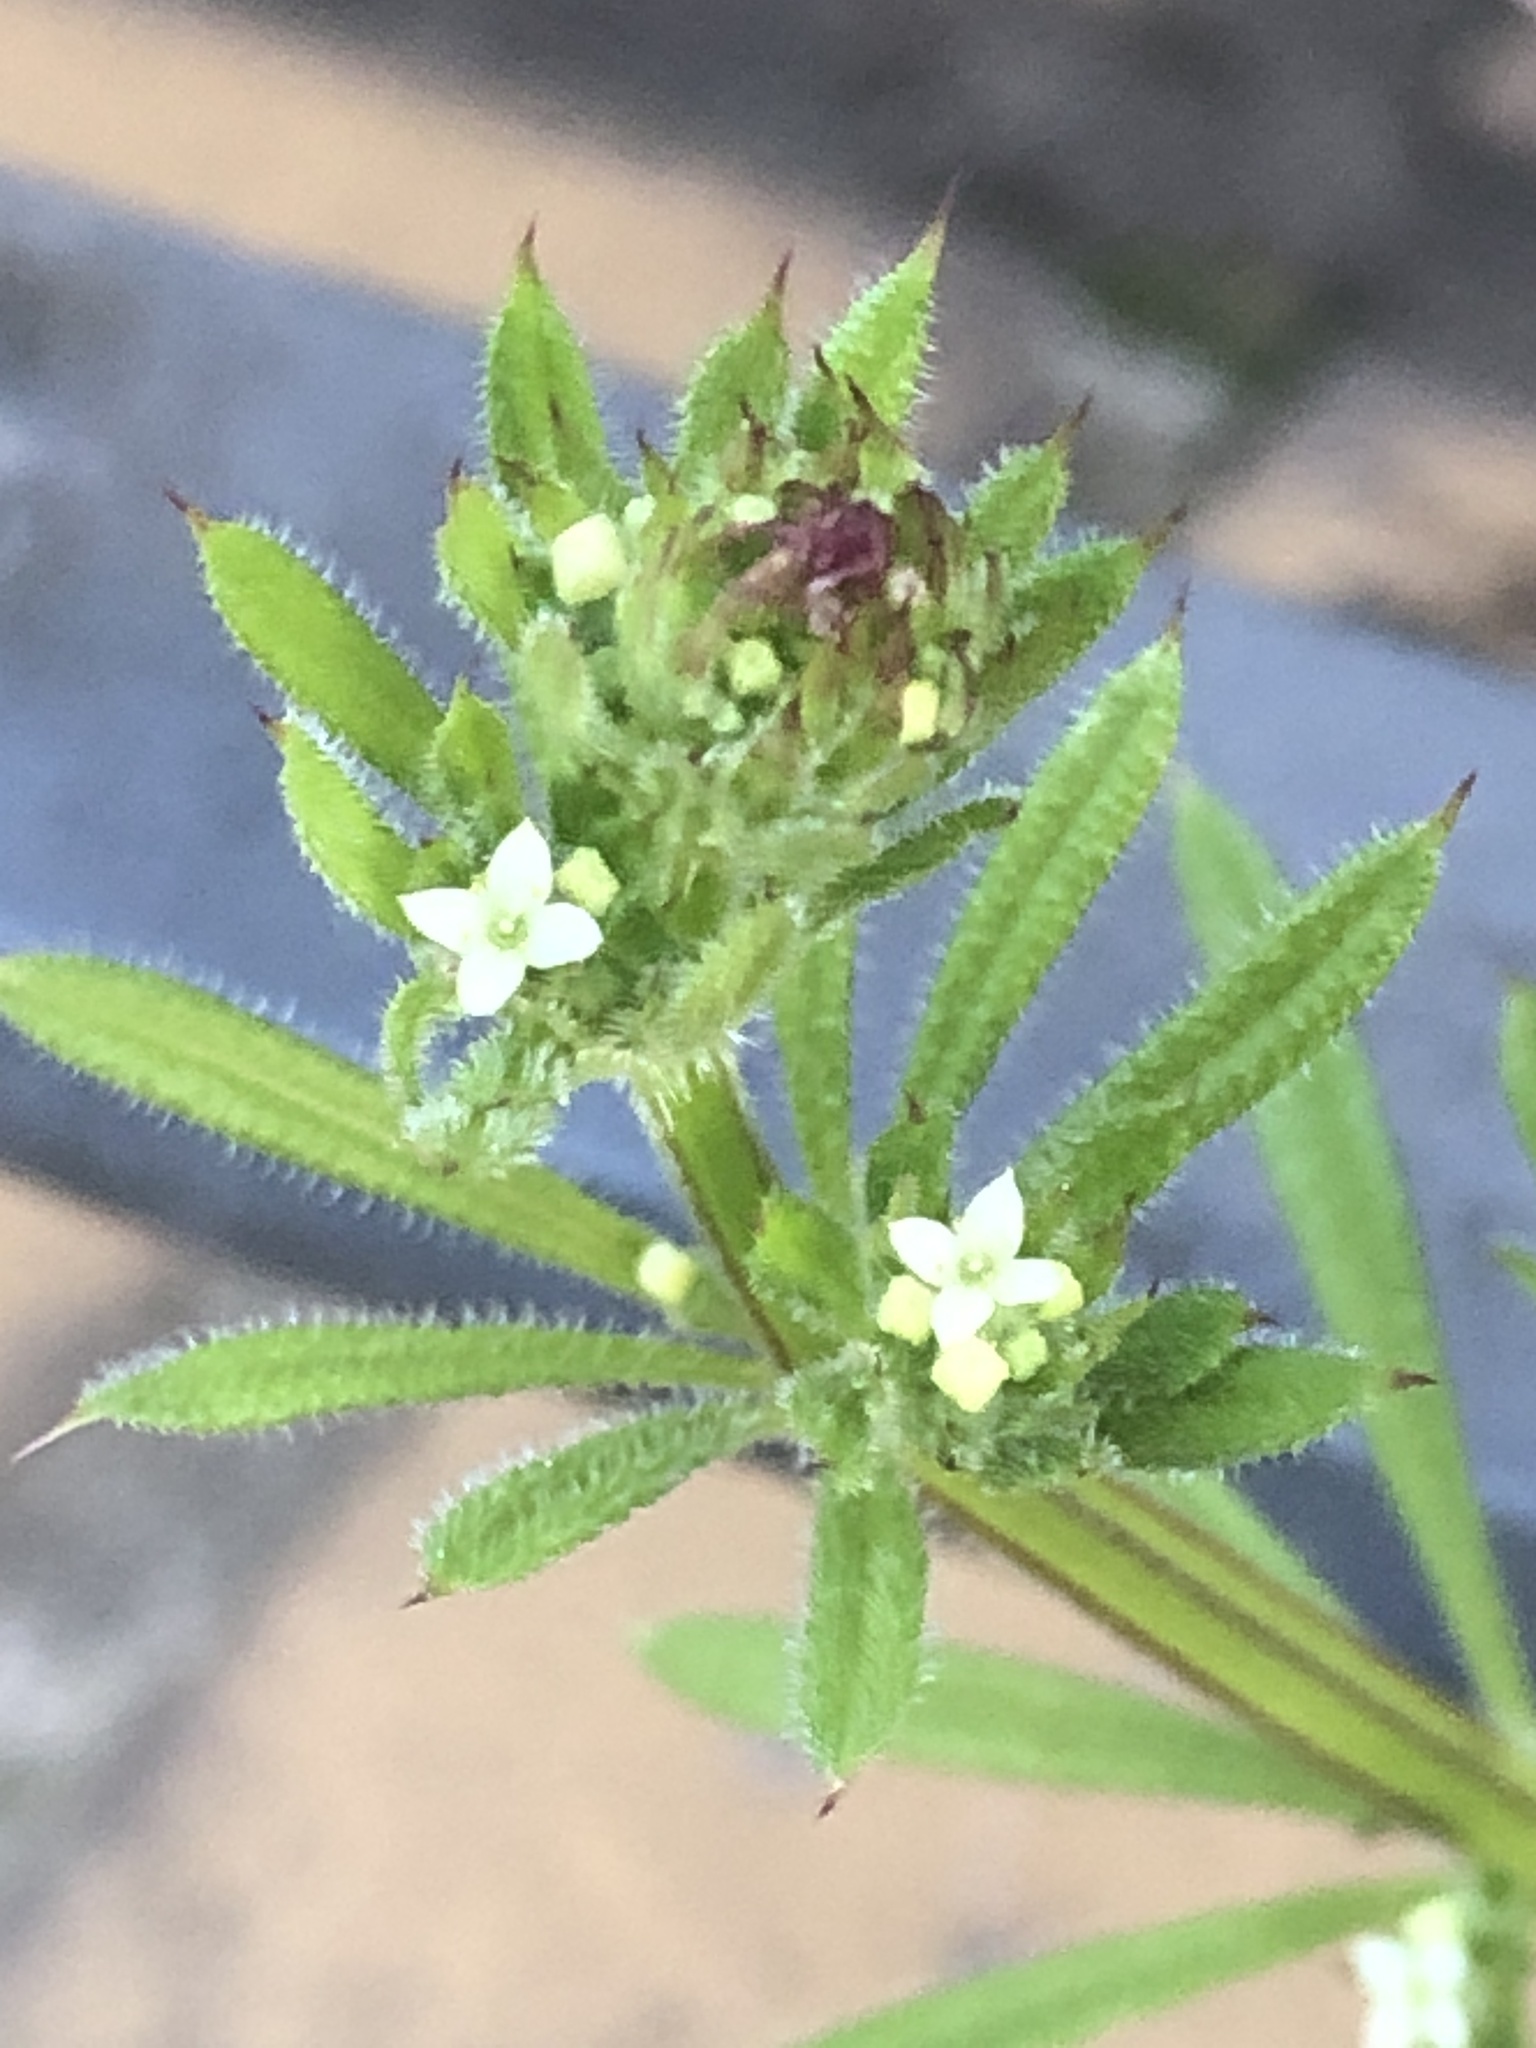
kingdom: Plantae
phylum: Tracheophyta
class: Magnoliopsida
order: Gentianales
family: Rubiaceae
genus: Galium
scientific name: Galium aparine
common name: Cleavers
